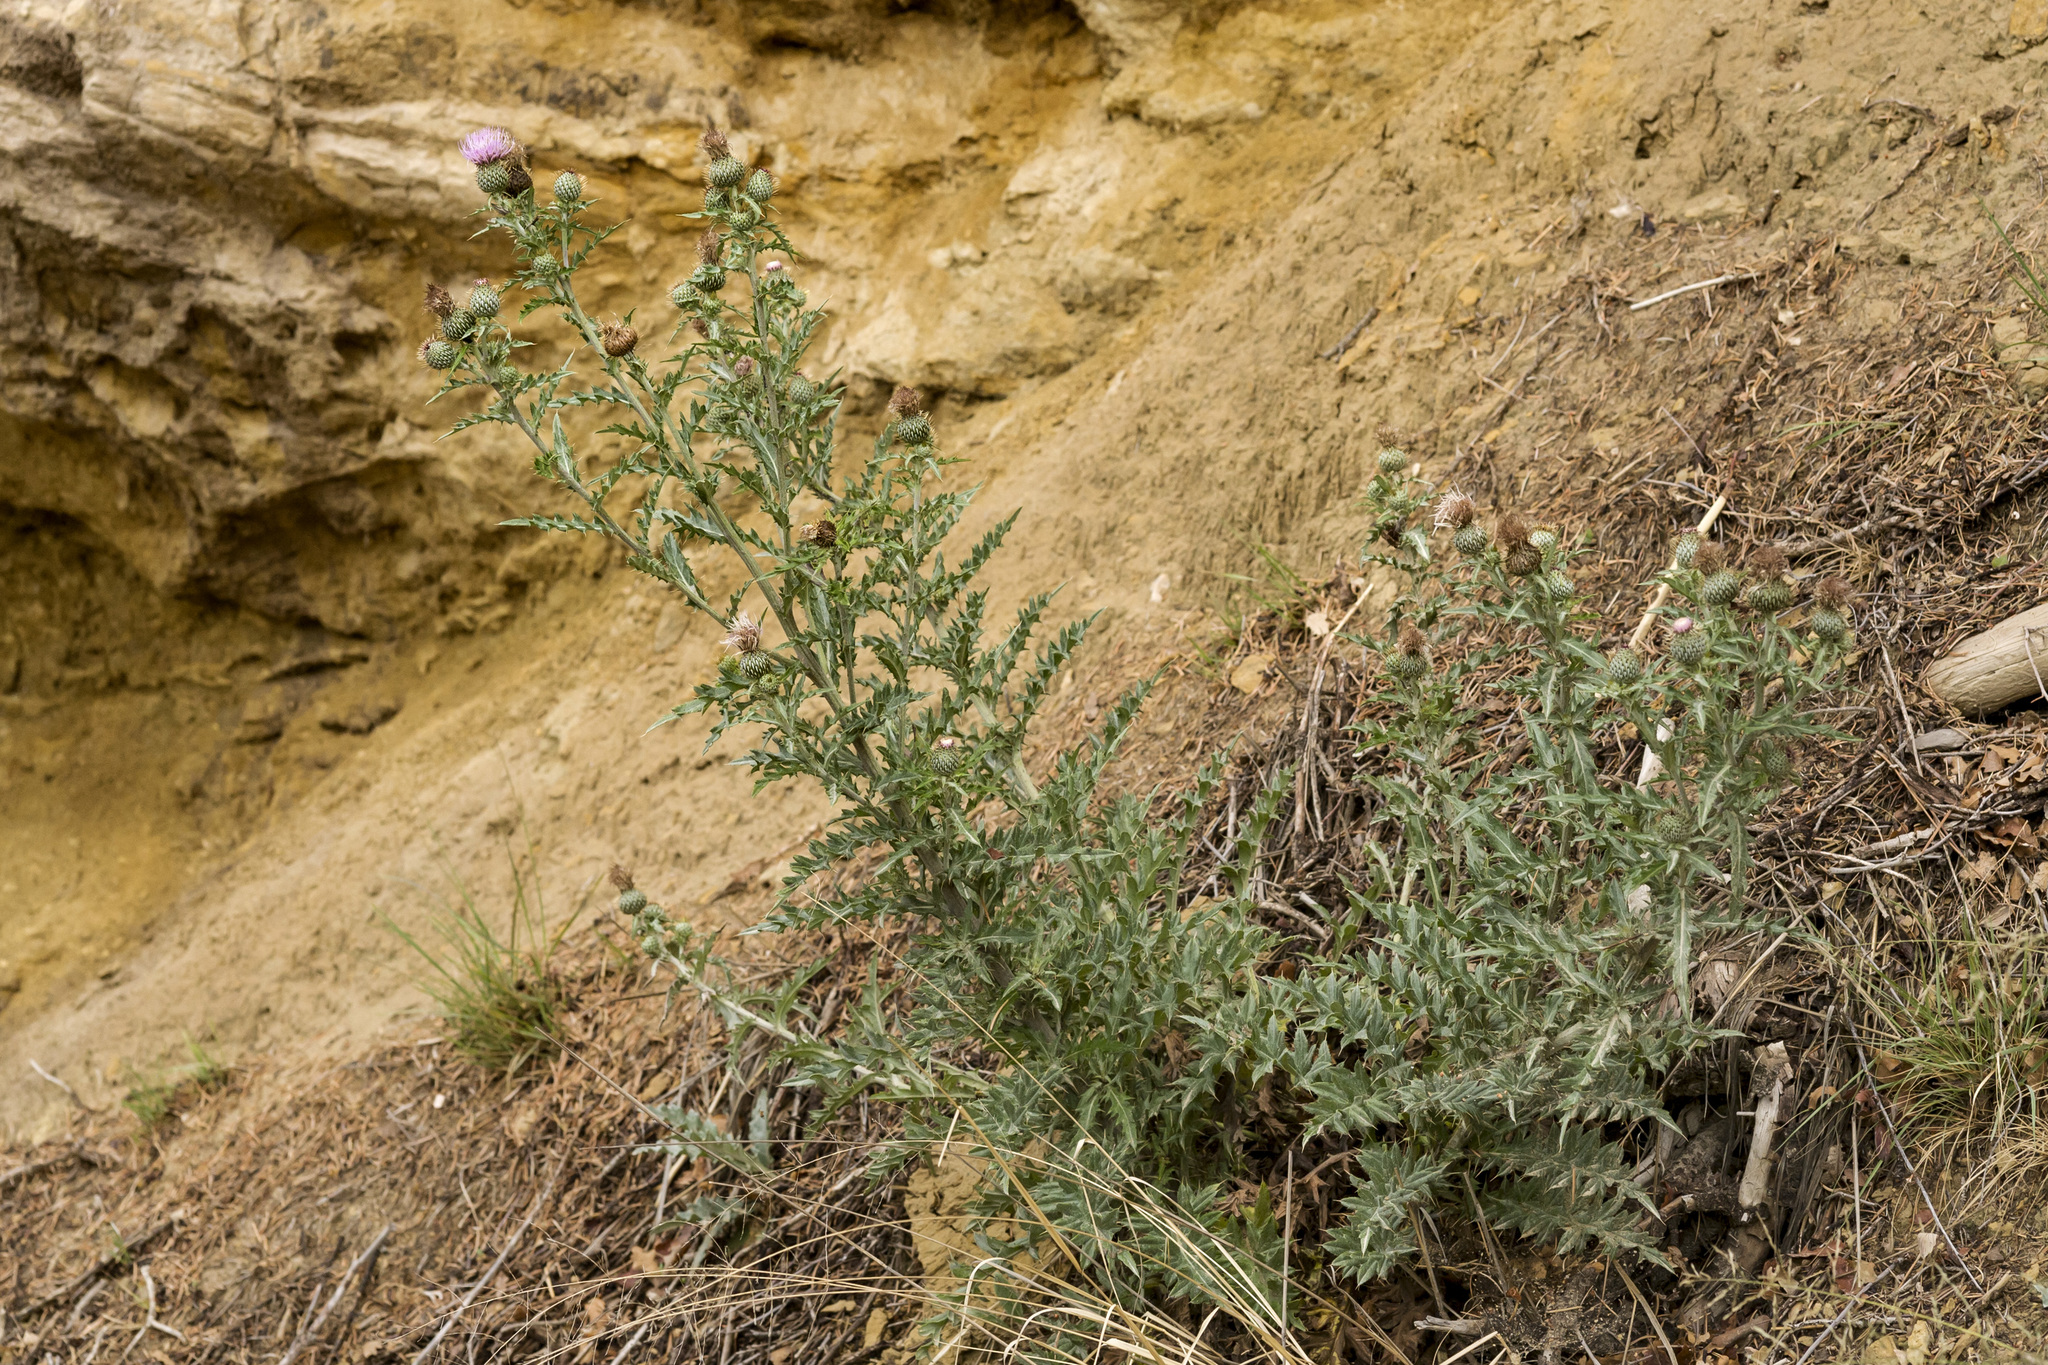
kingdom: Plantae
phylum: Tracheophyta
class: Magnoliopsida
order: Asterales
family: Asteraceae
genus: Cirsium
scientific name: Cirsium undulatum
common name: Pasture thistle
